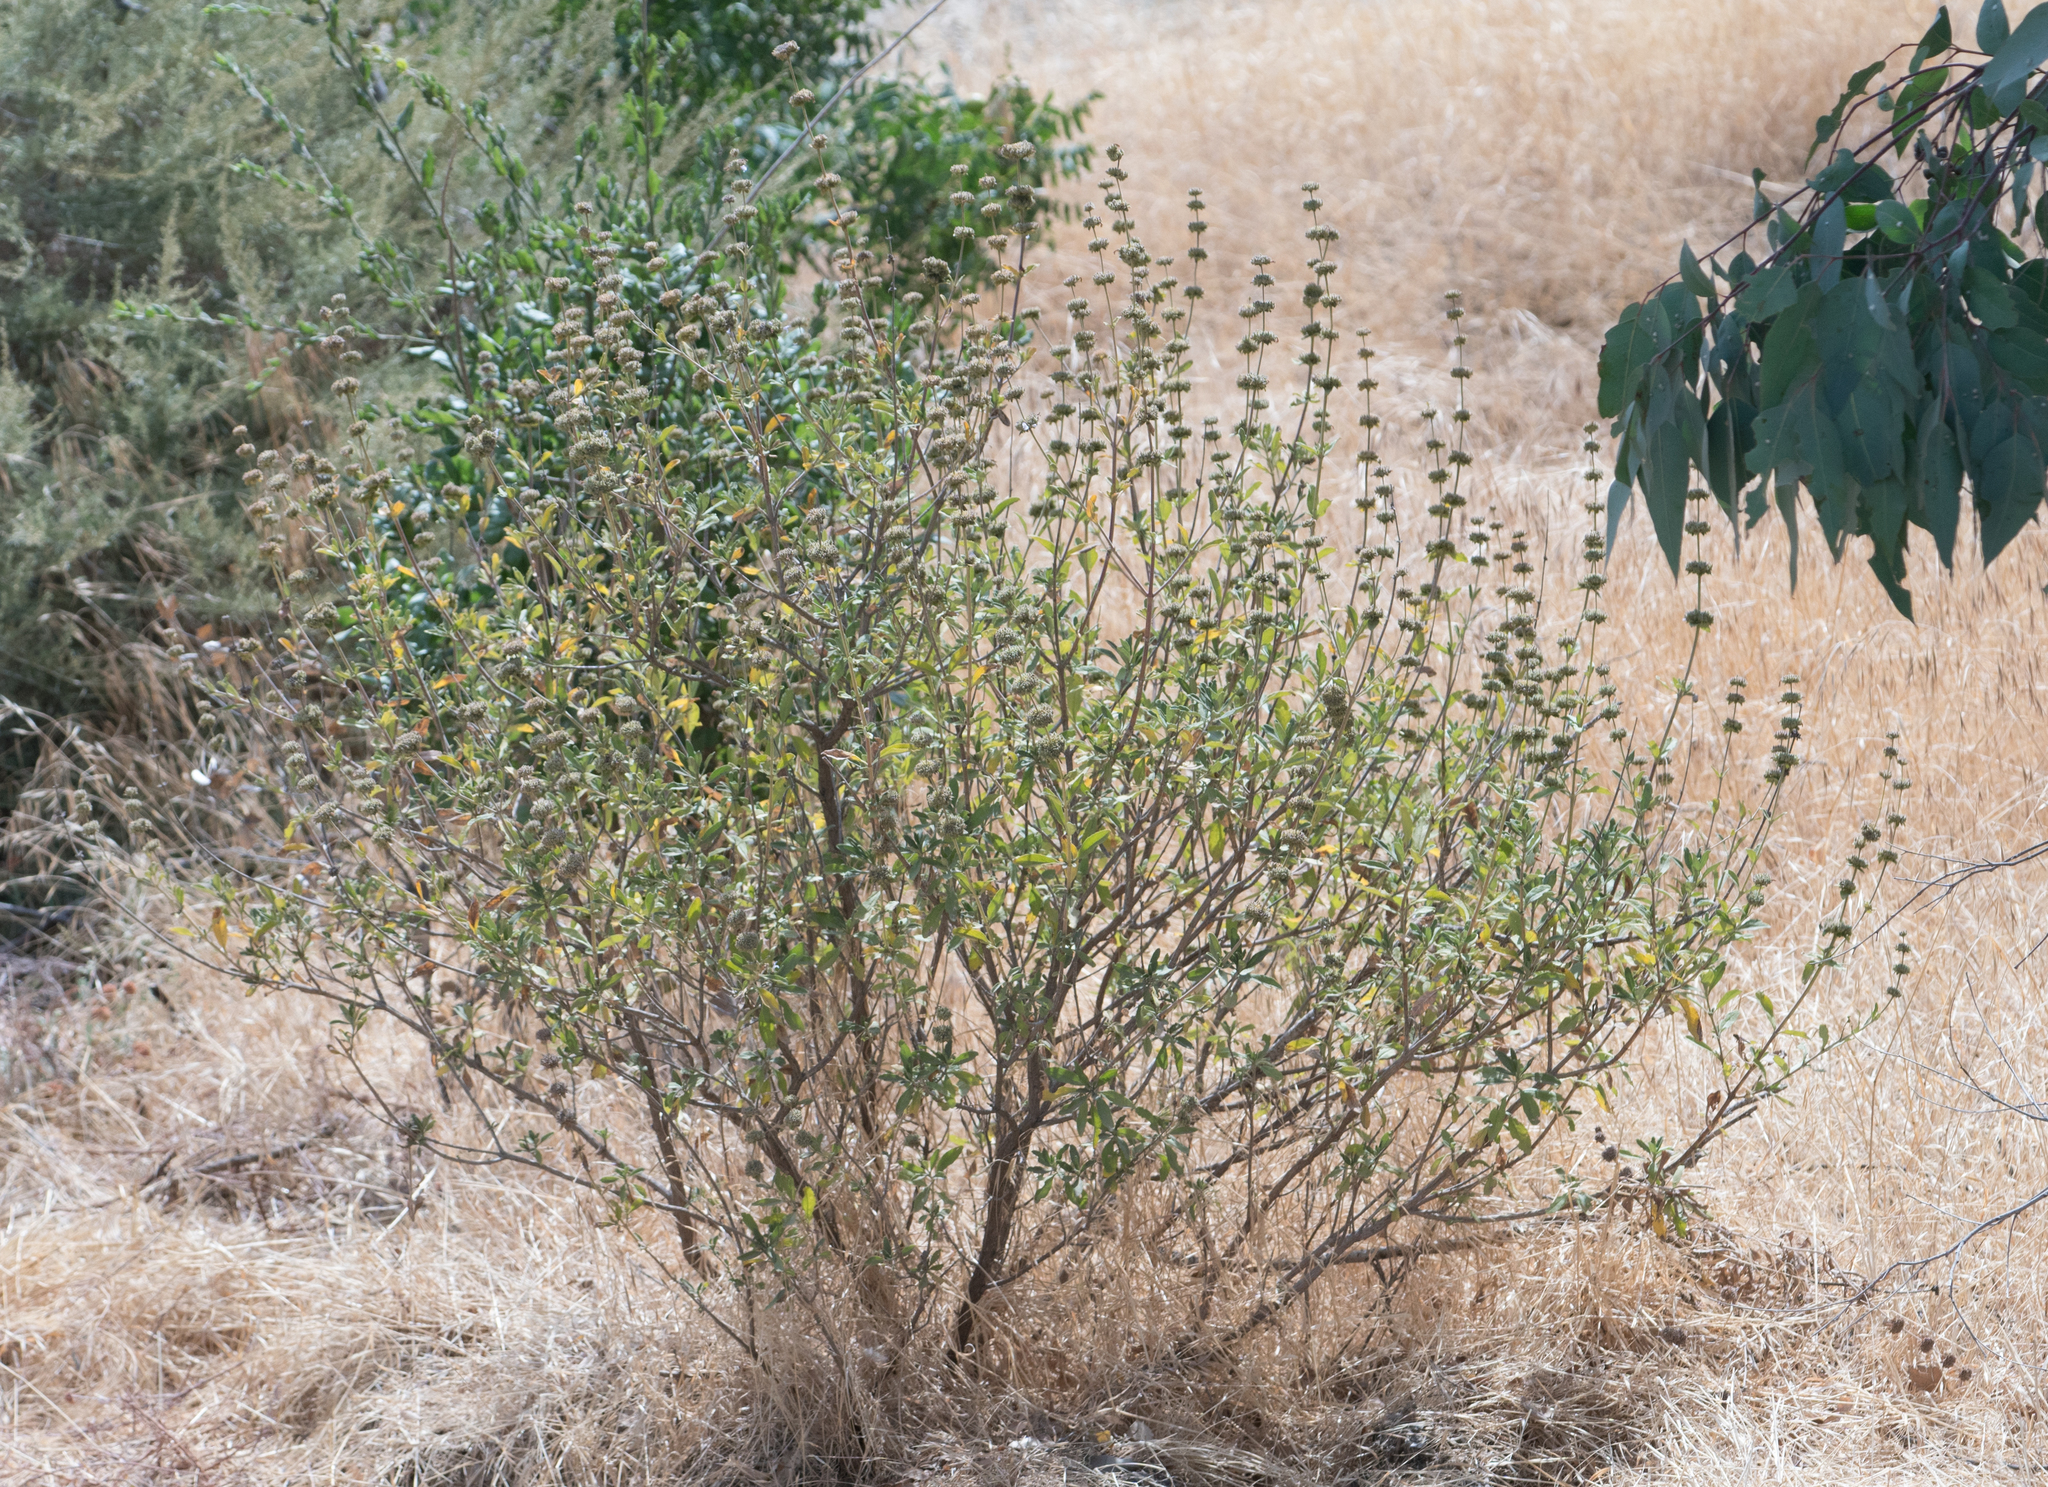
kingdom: Plantae
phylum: Tracheophyta
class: Magnoliopsida
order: Lamiales
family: Lamiaceae
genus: Salvia
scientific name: Salvia mellifera
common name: Black sage
